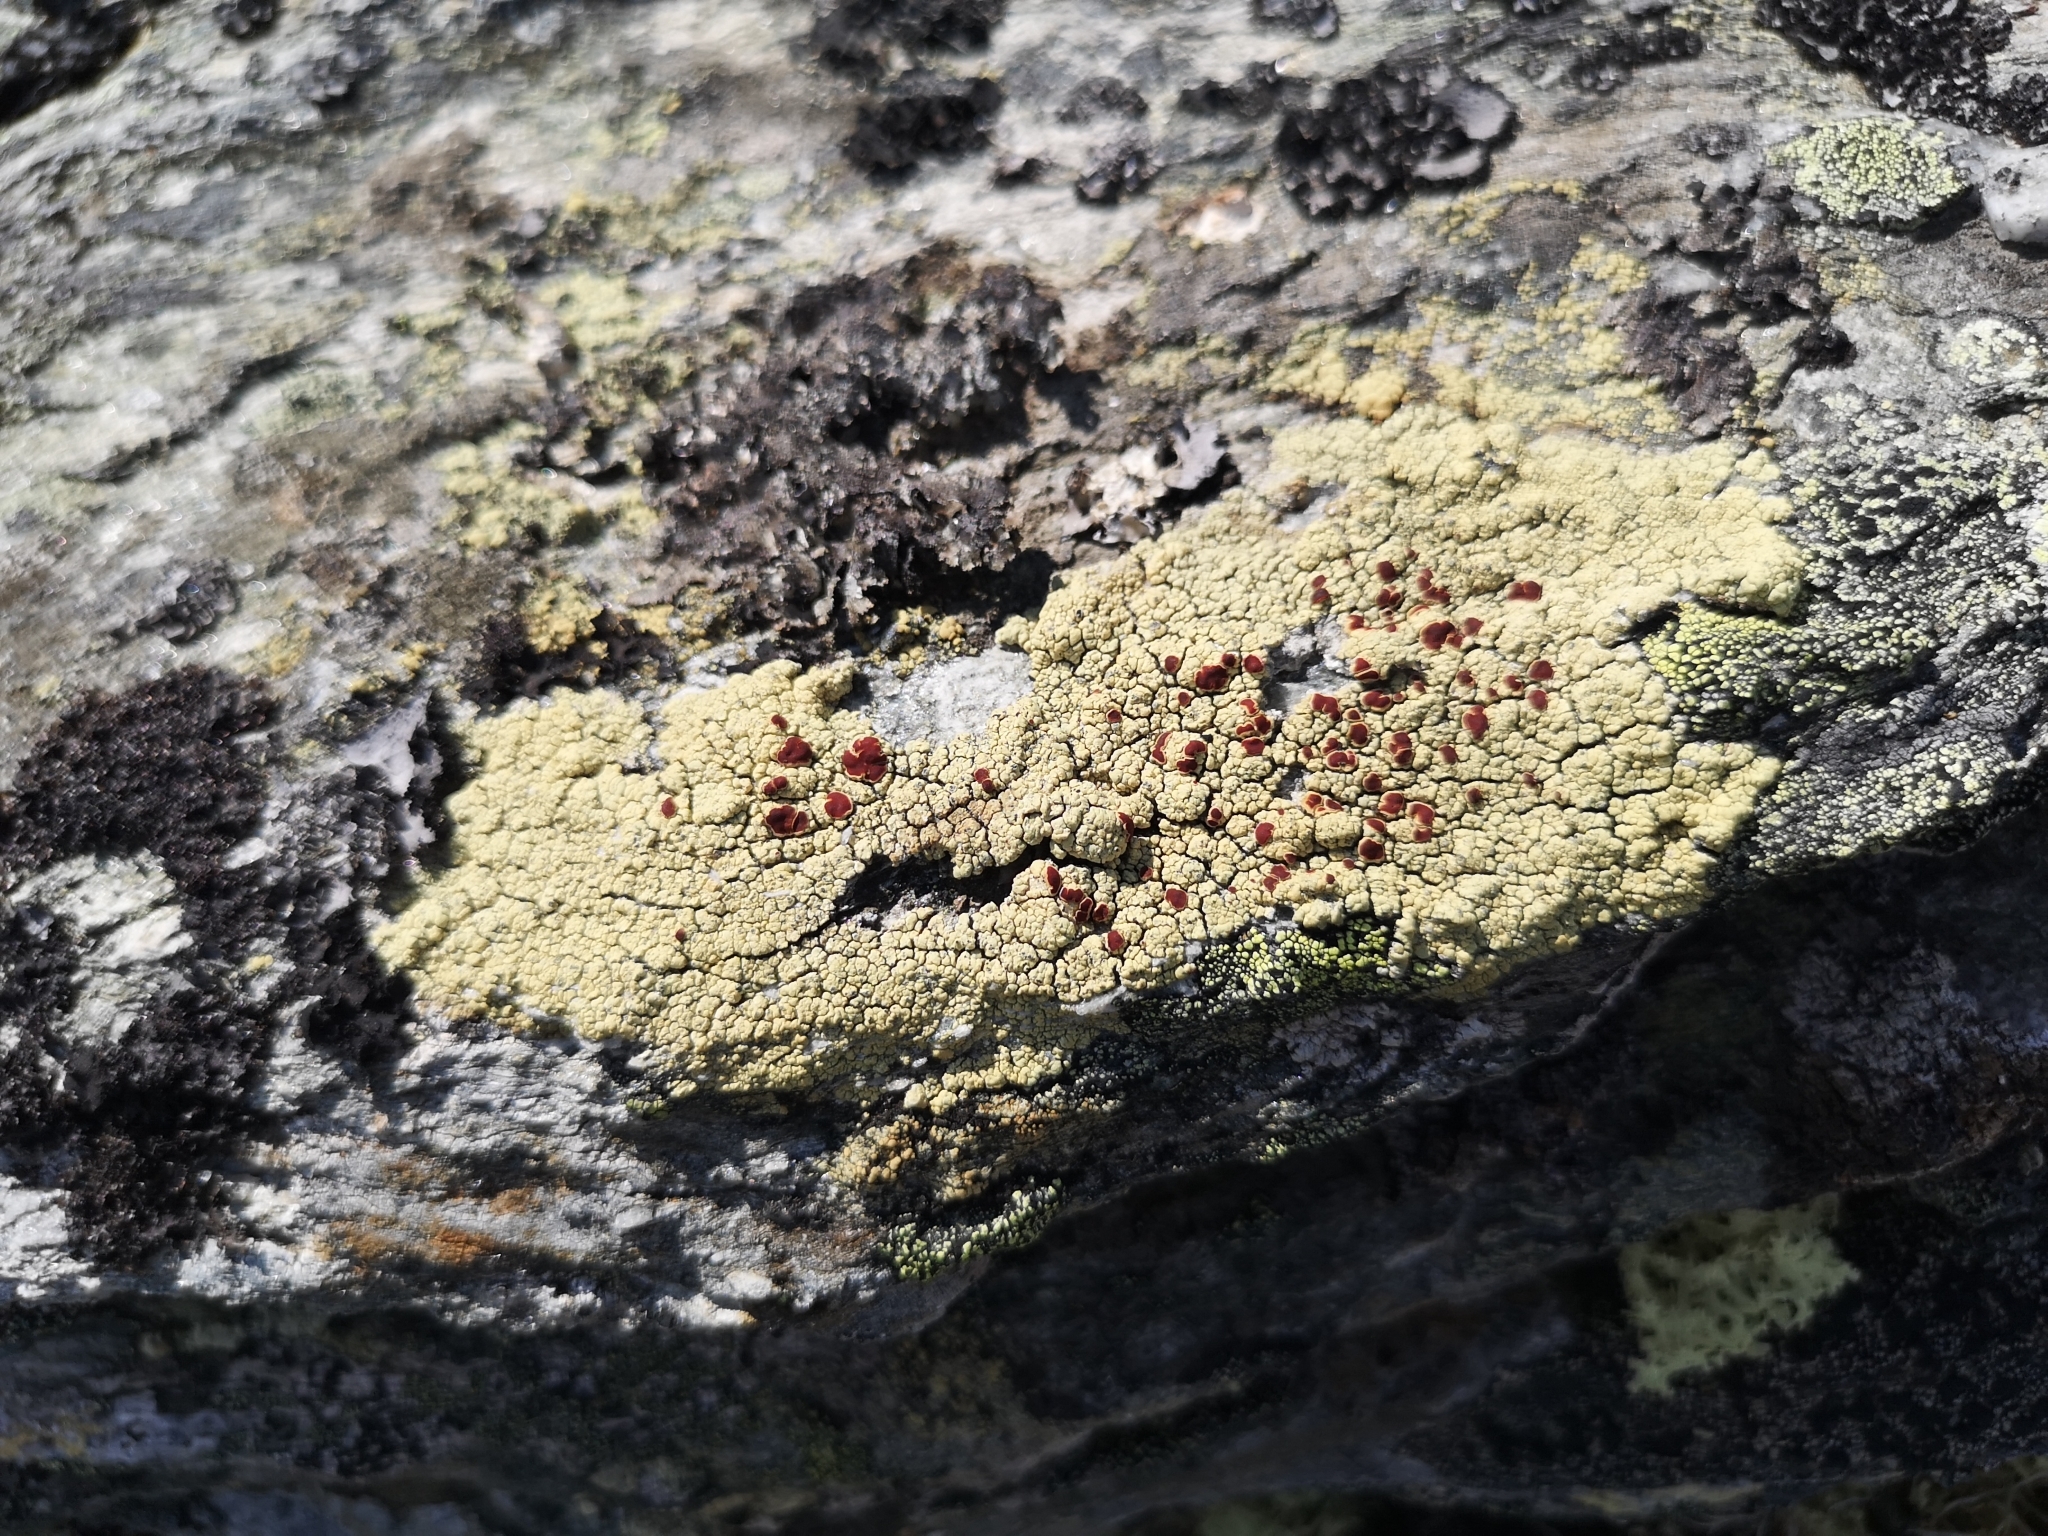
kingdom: Fungi
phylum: Ascomycota
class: Lecanoromycetes
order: Umbilicariales
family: Ophioparmaceae
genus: Ophioparma
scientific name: Ophioparma ventosa
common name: Blood-spot
